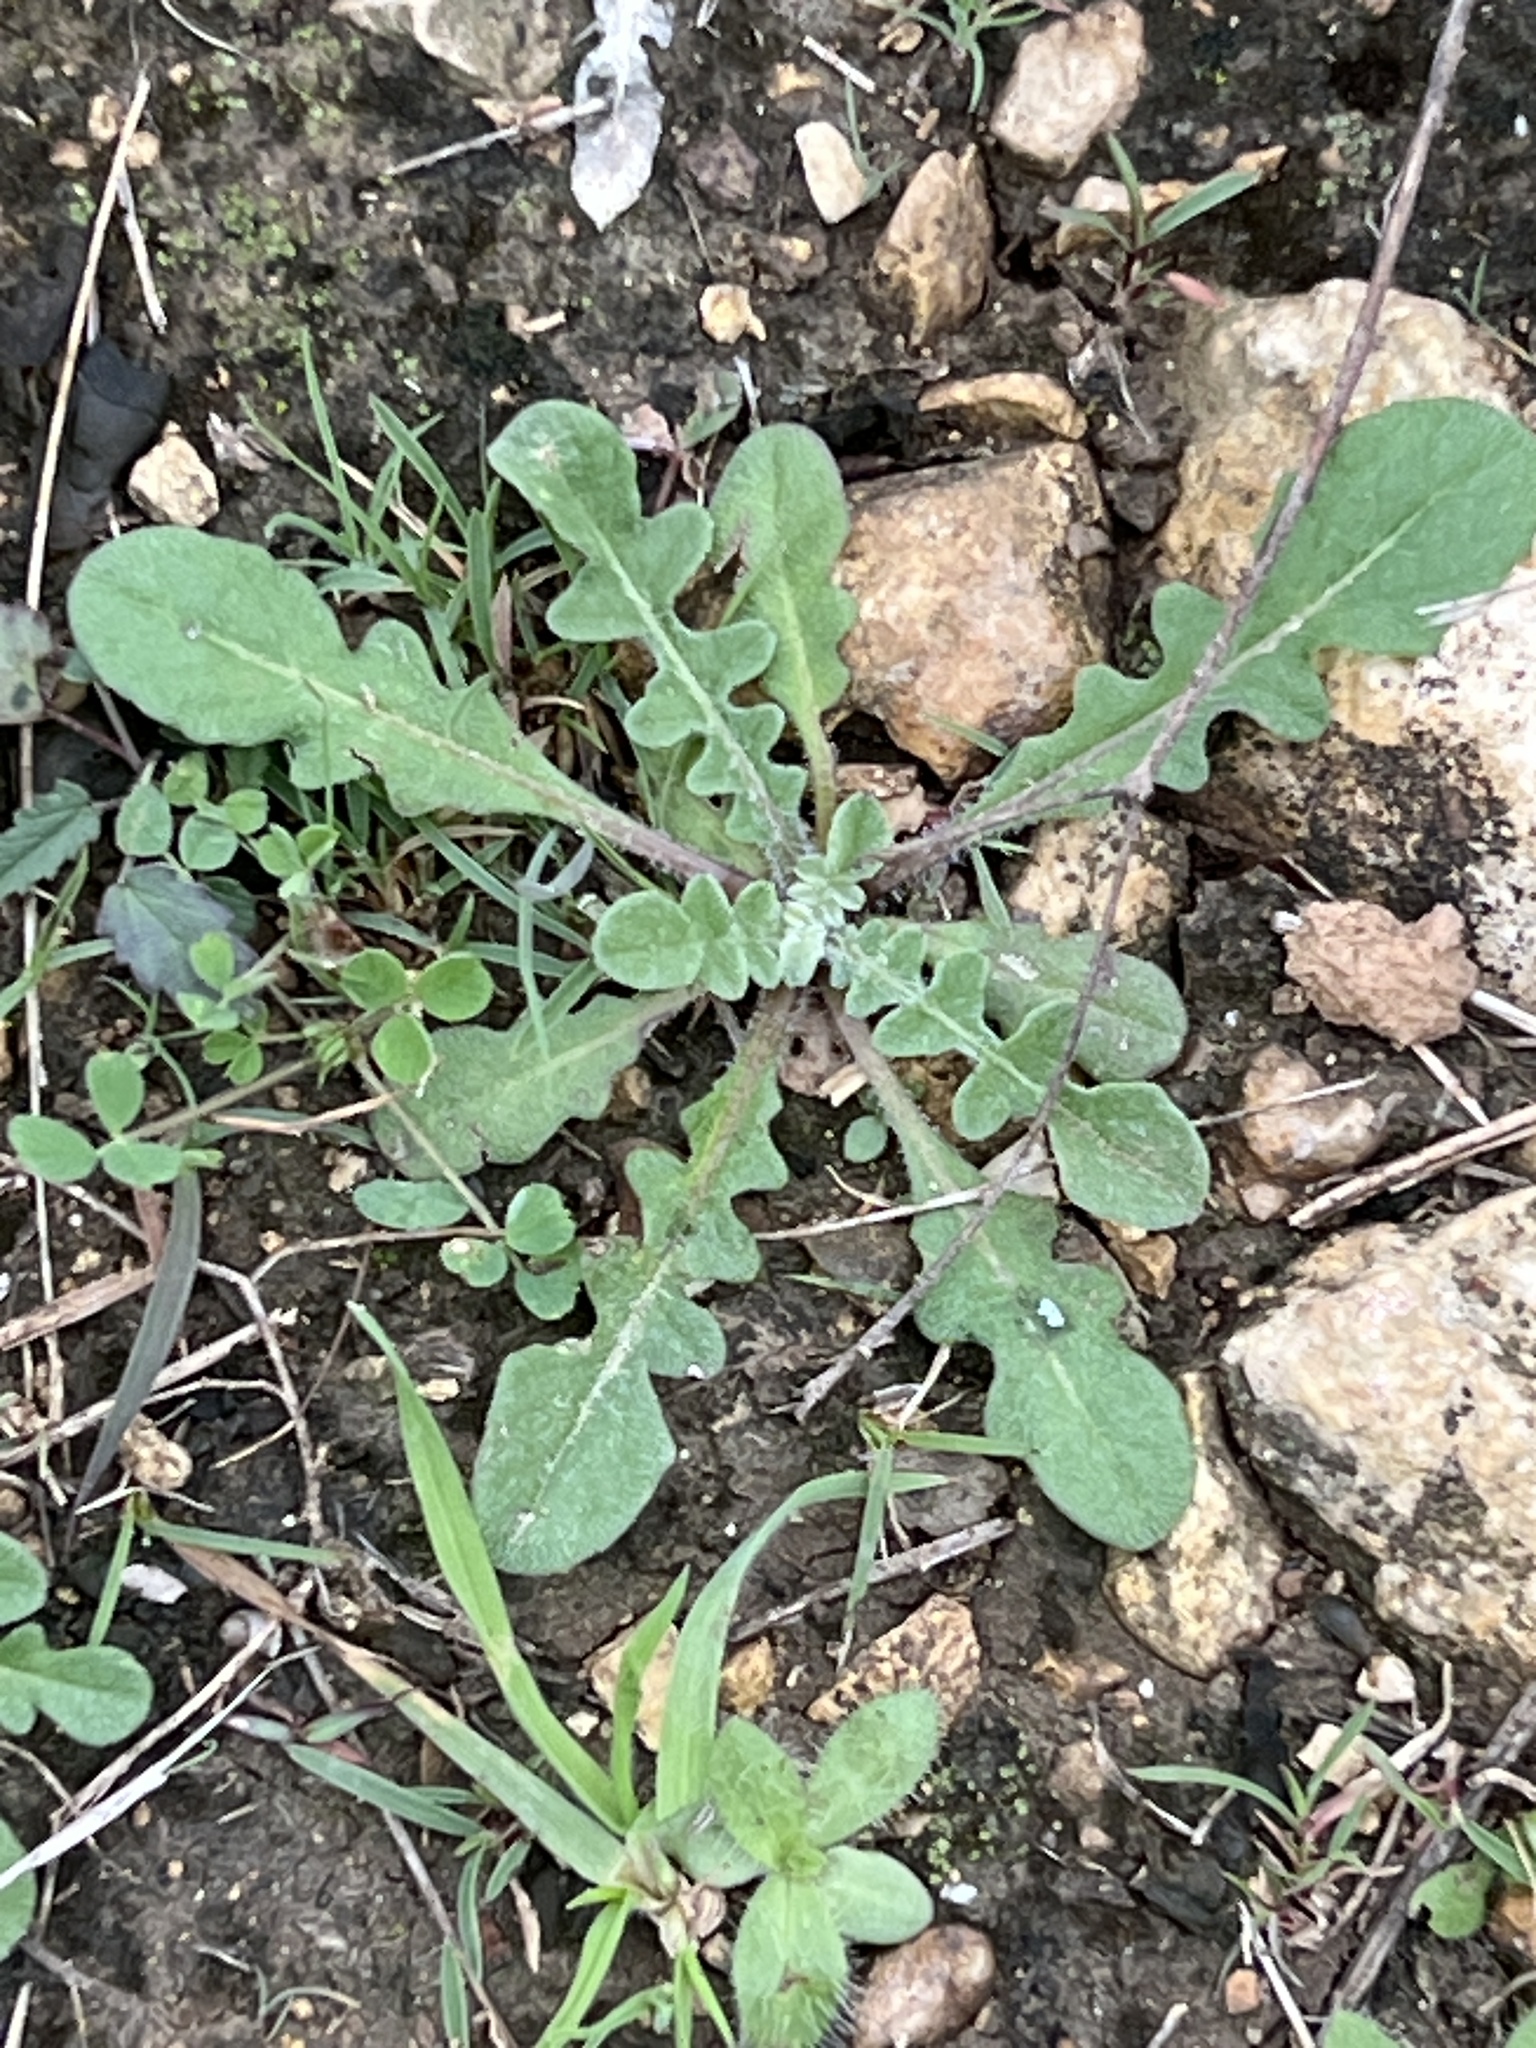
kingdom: Plantae
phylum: Tracheophyta
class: Magnoliopsida
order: Asterales
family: Asteraceae
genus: Centaurea
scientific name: Centaurea melitensis
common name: Maltese star-thistle
